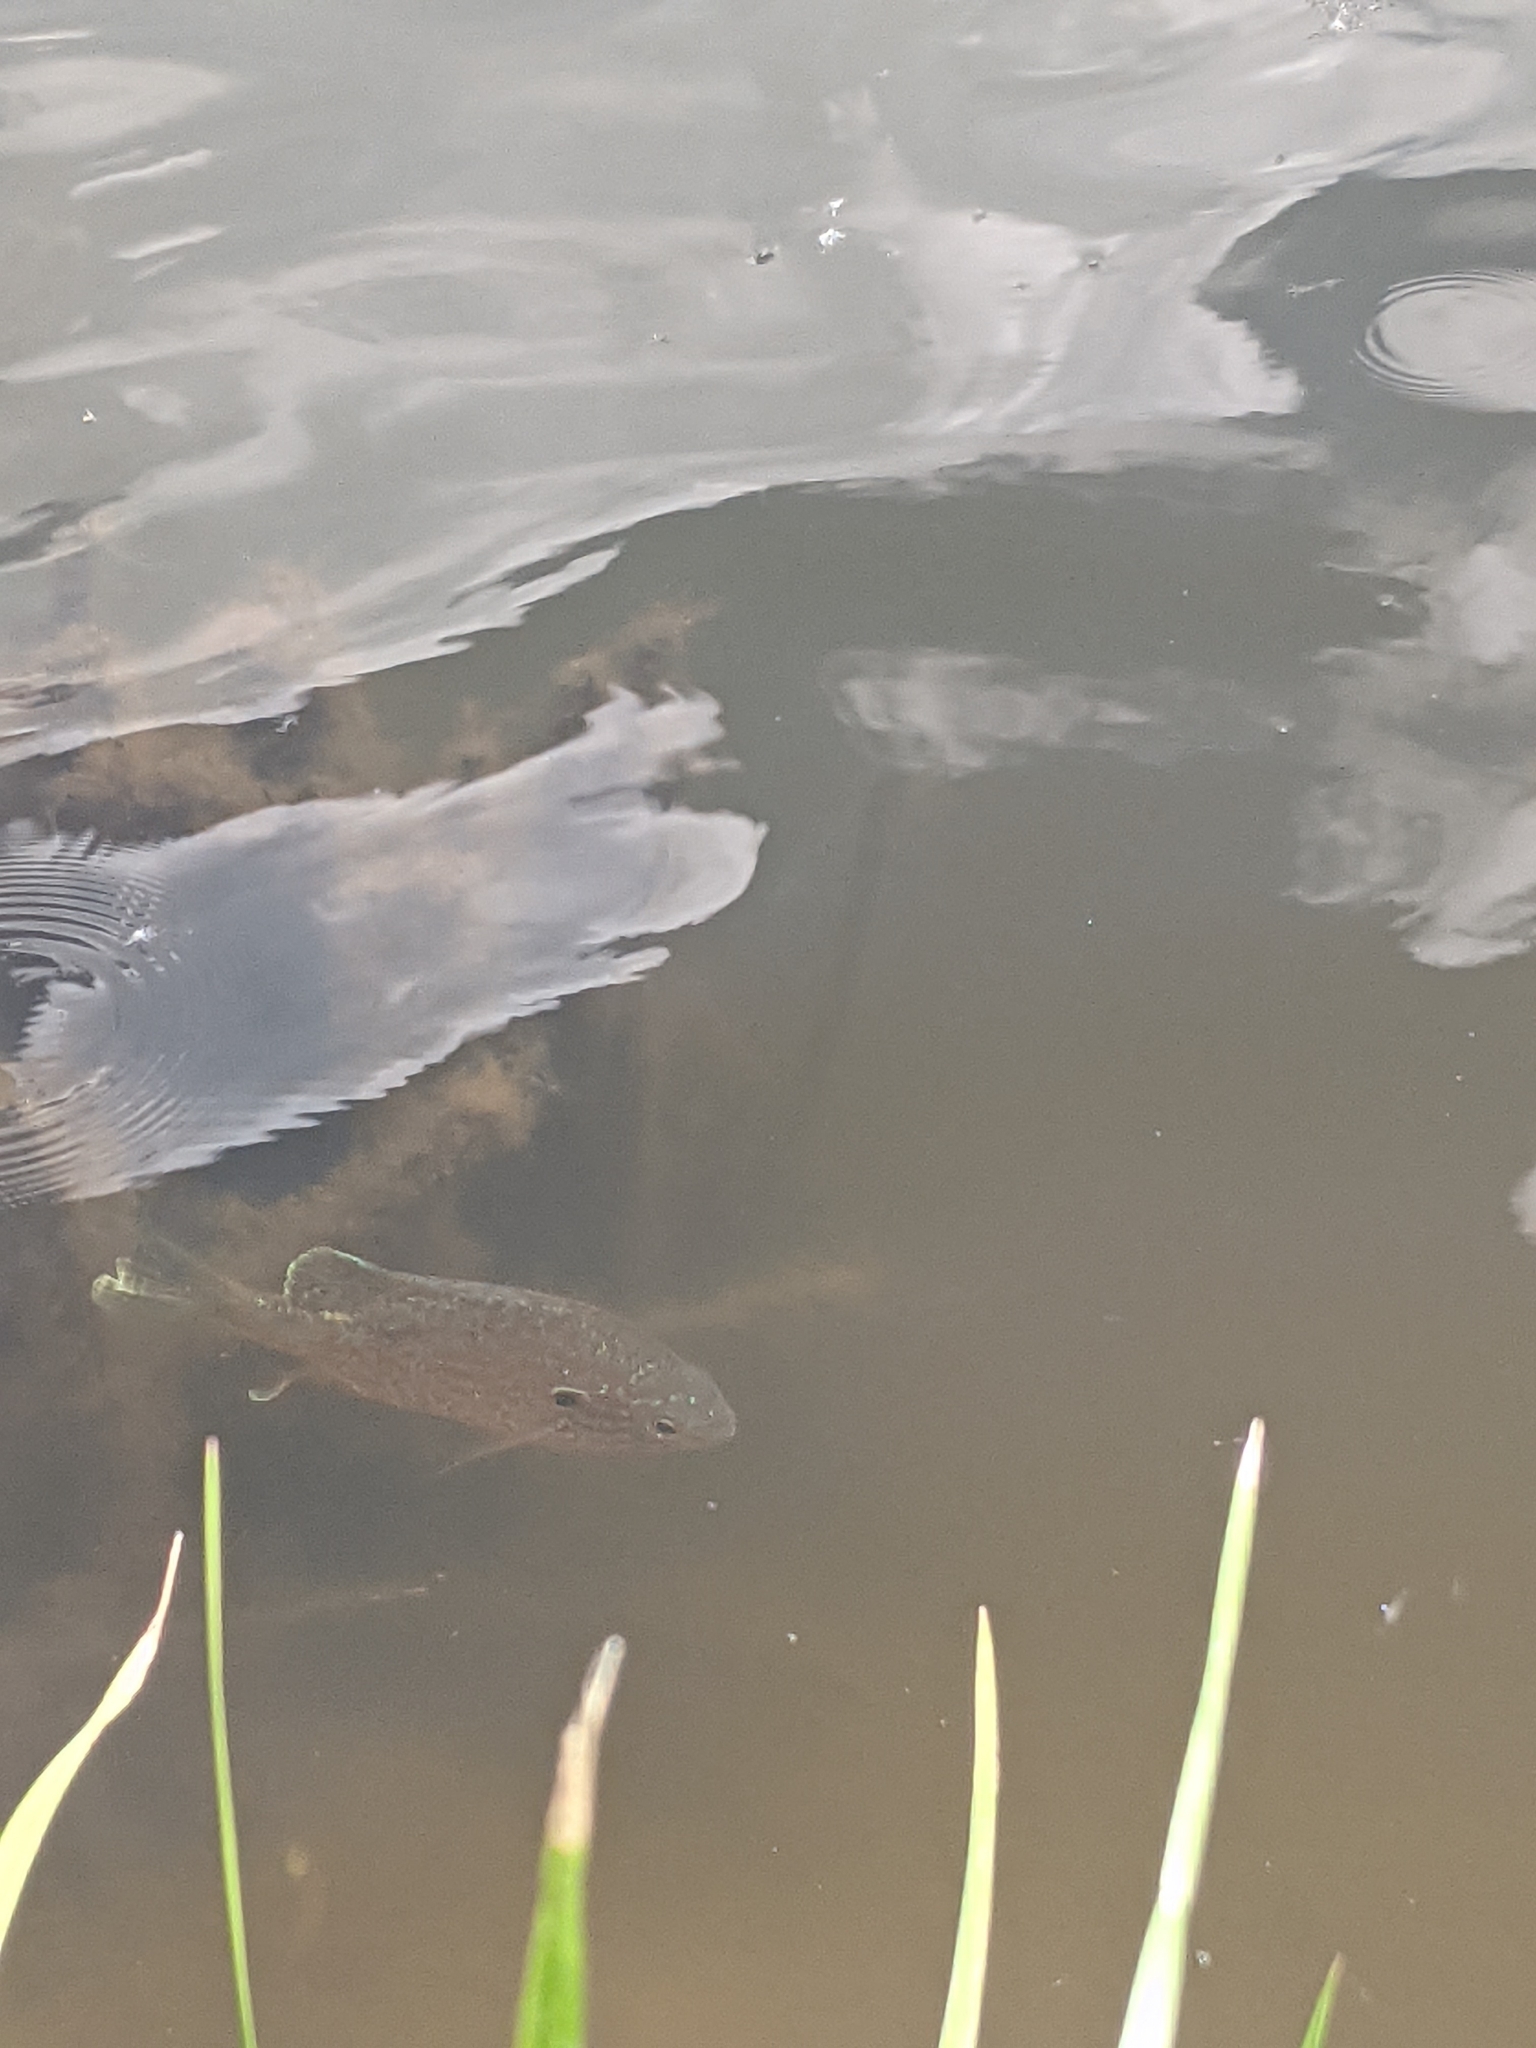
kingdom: Animalia
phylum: Chordata
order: Perciformes
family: Centrarchidae
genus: Lepomis
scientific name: Lepomis gibbosus
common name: Pumpkinseed
